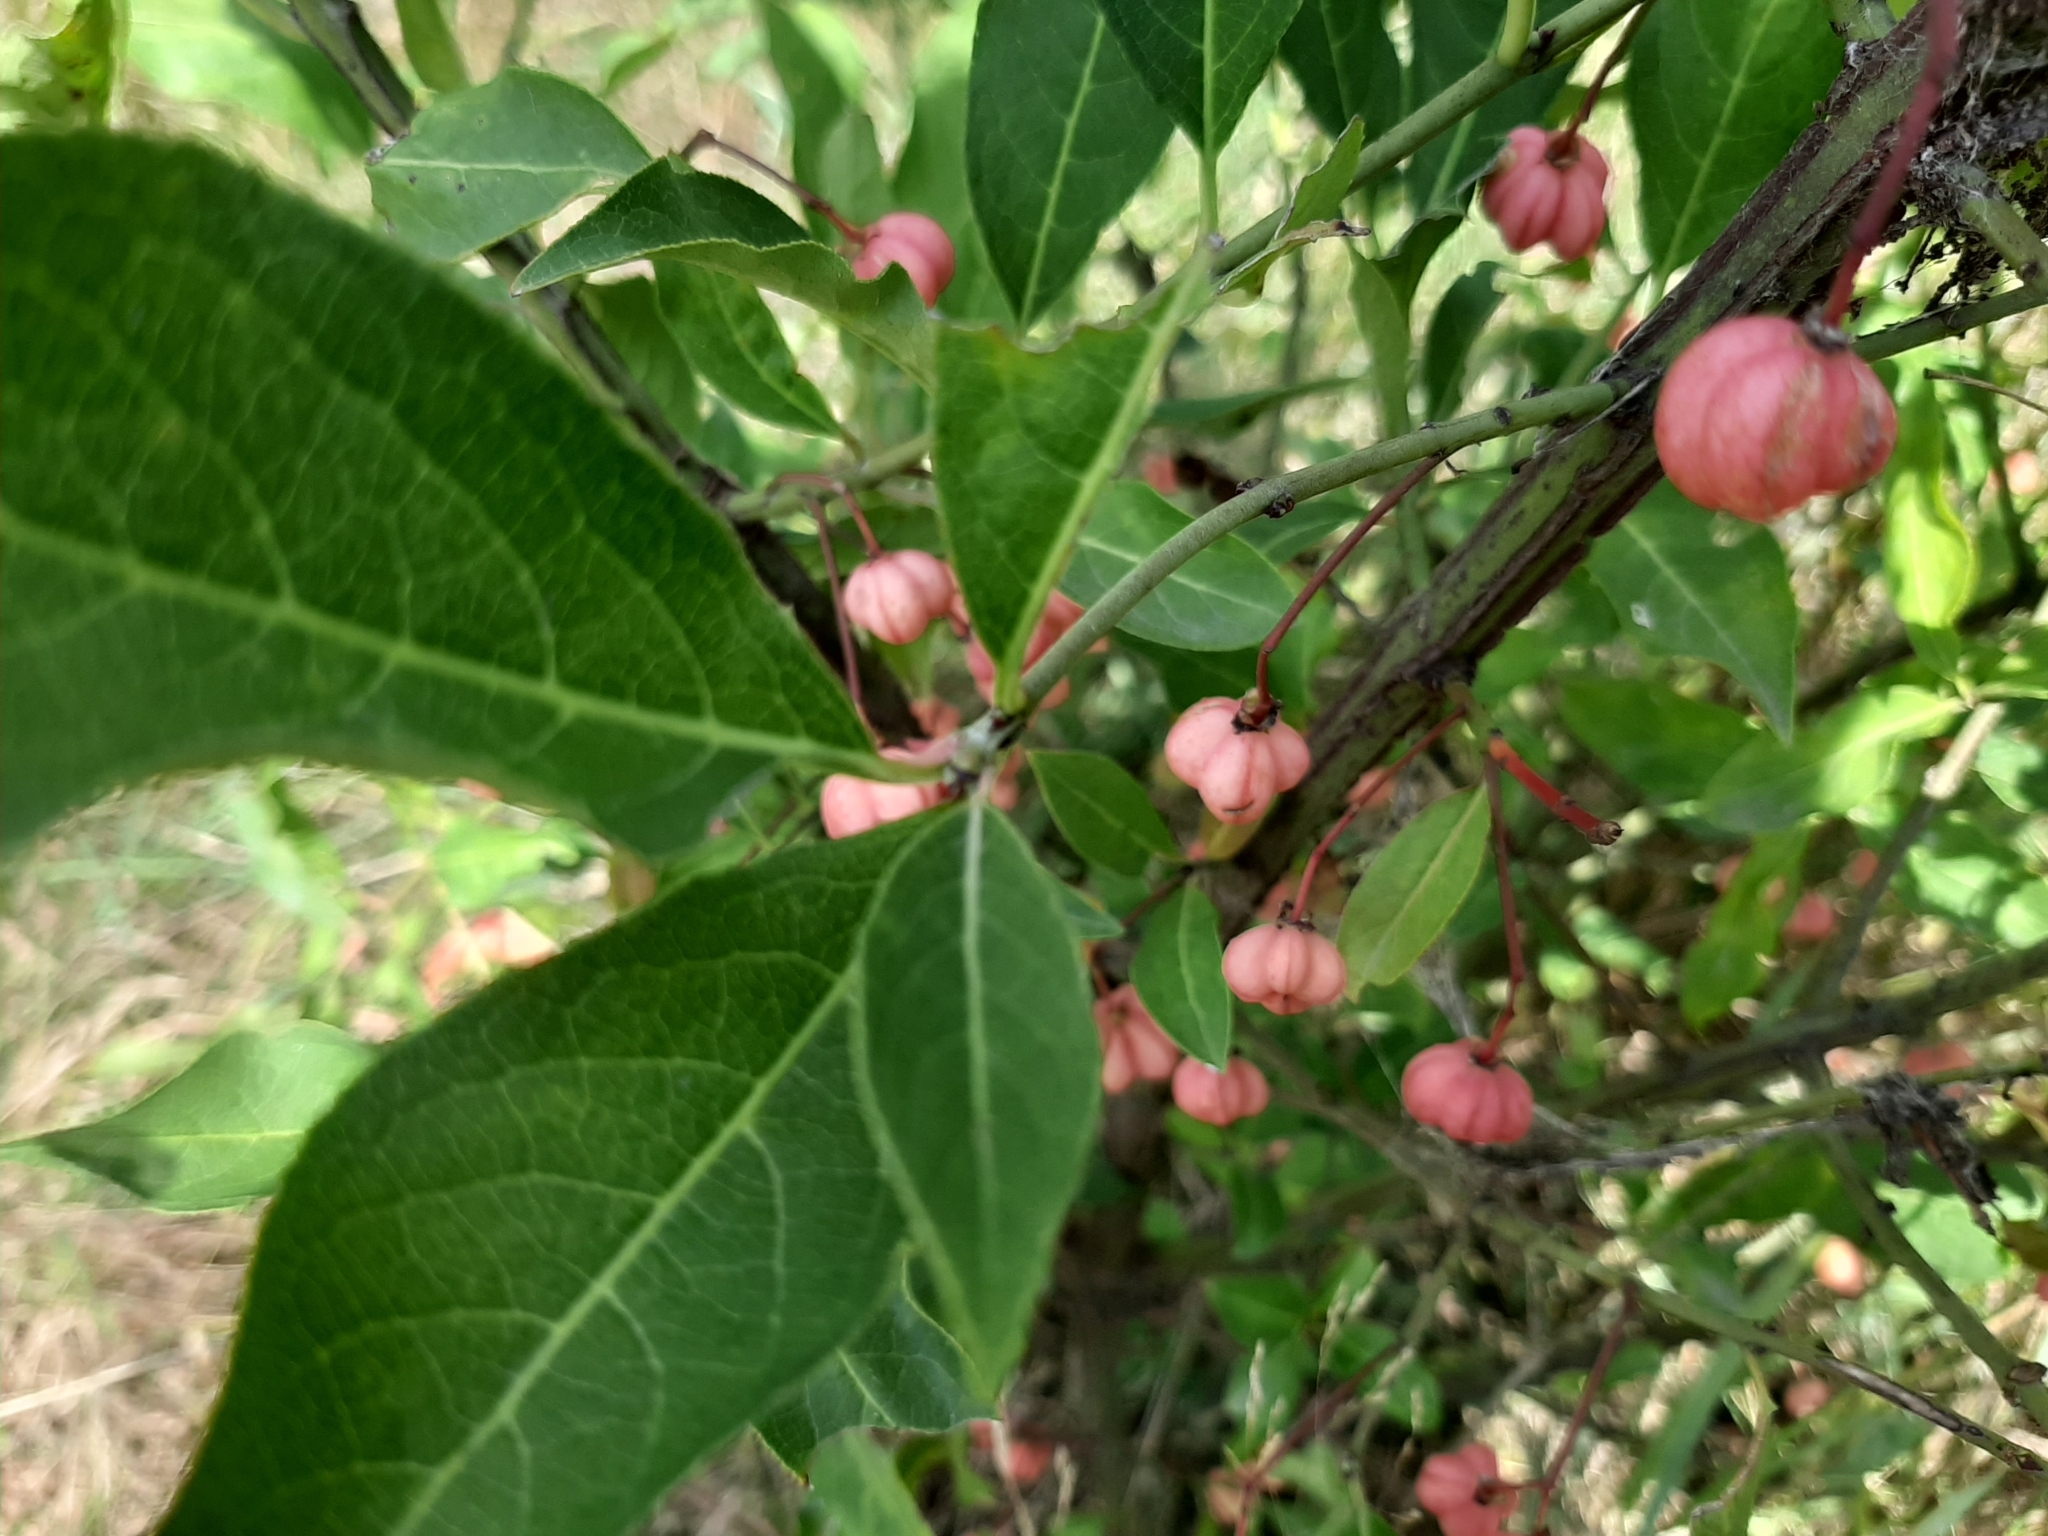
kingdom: Plantae
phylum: Tracheophyta
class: Magnoliopsida
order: Celastrales
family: Celastraceae
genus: Euonymus
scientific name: Euonymus europaeus
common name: Spindle
